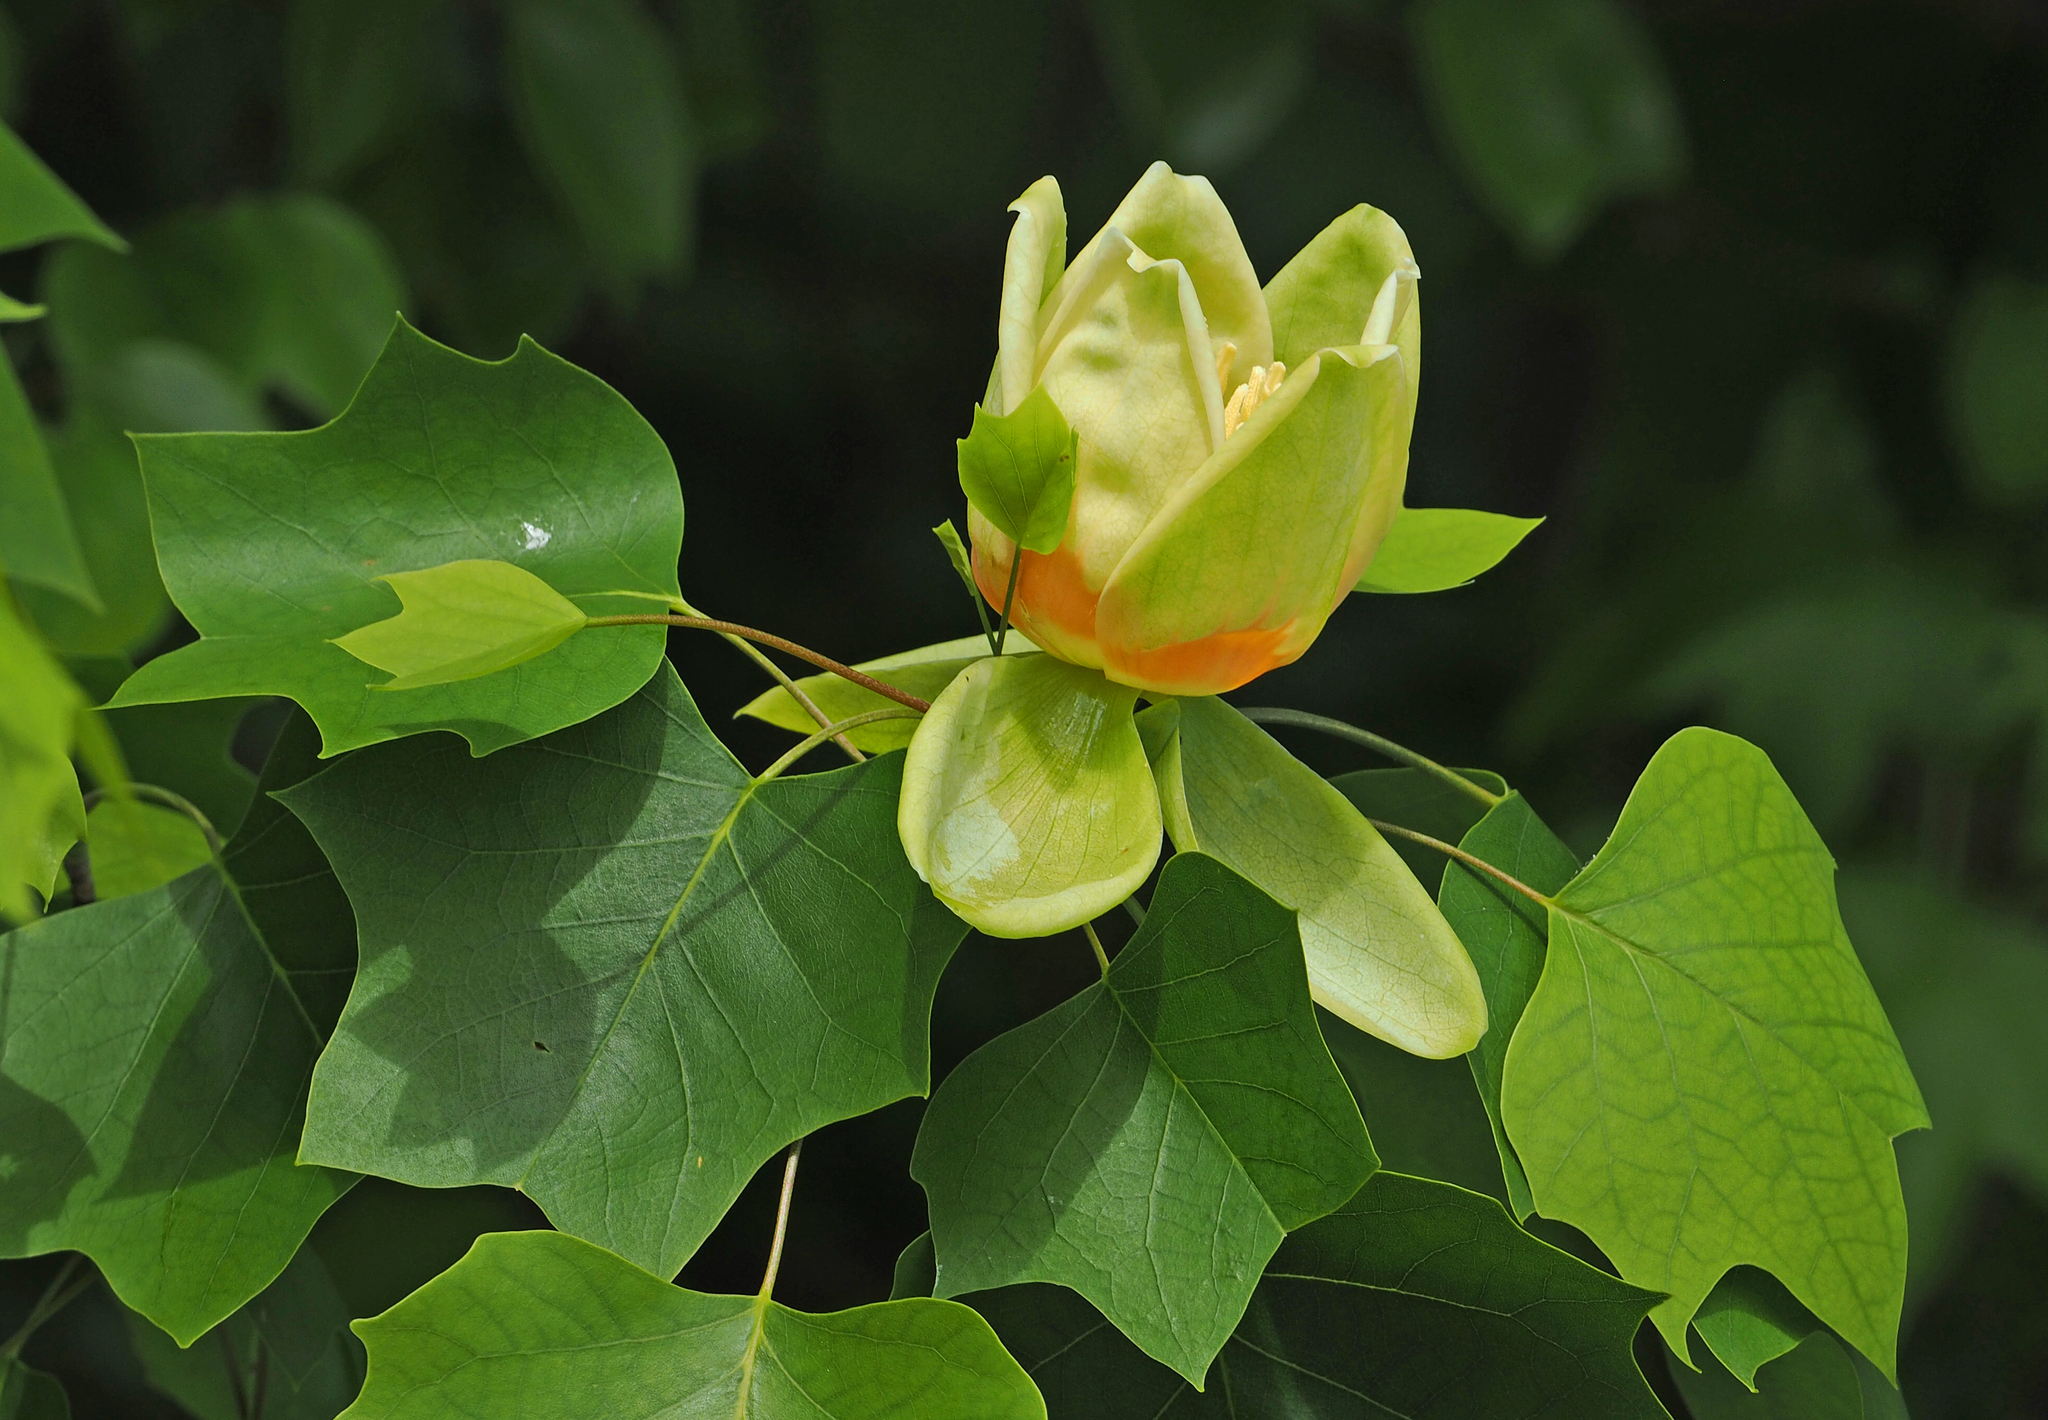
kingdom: Plantae
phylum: Tracheophyta
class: Magnoliopsida
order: Magnoliales
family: Magnoliaceae
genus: Liriodendron
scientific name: Liriodendron tulipifera
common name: Tulip tree
